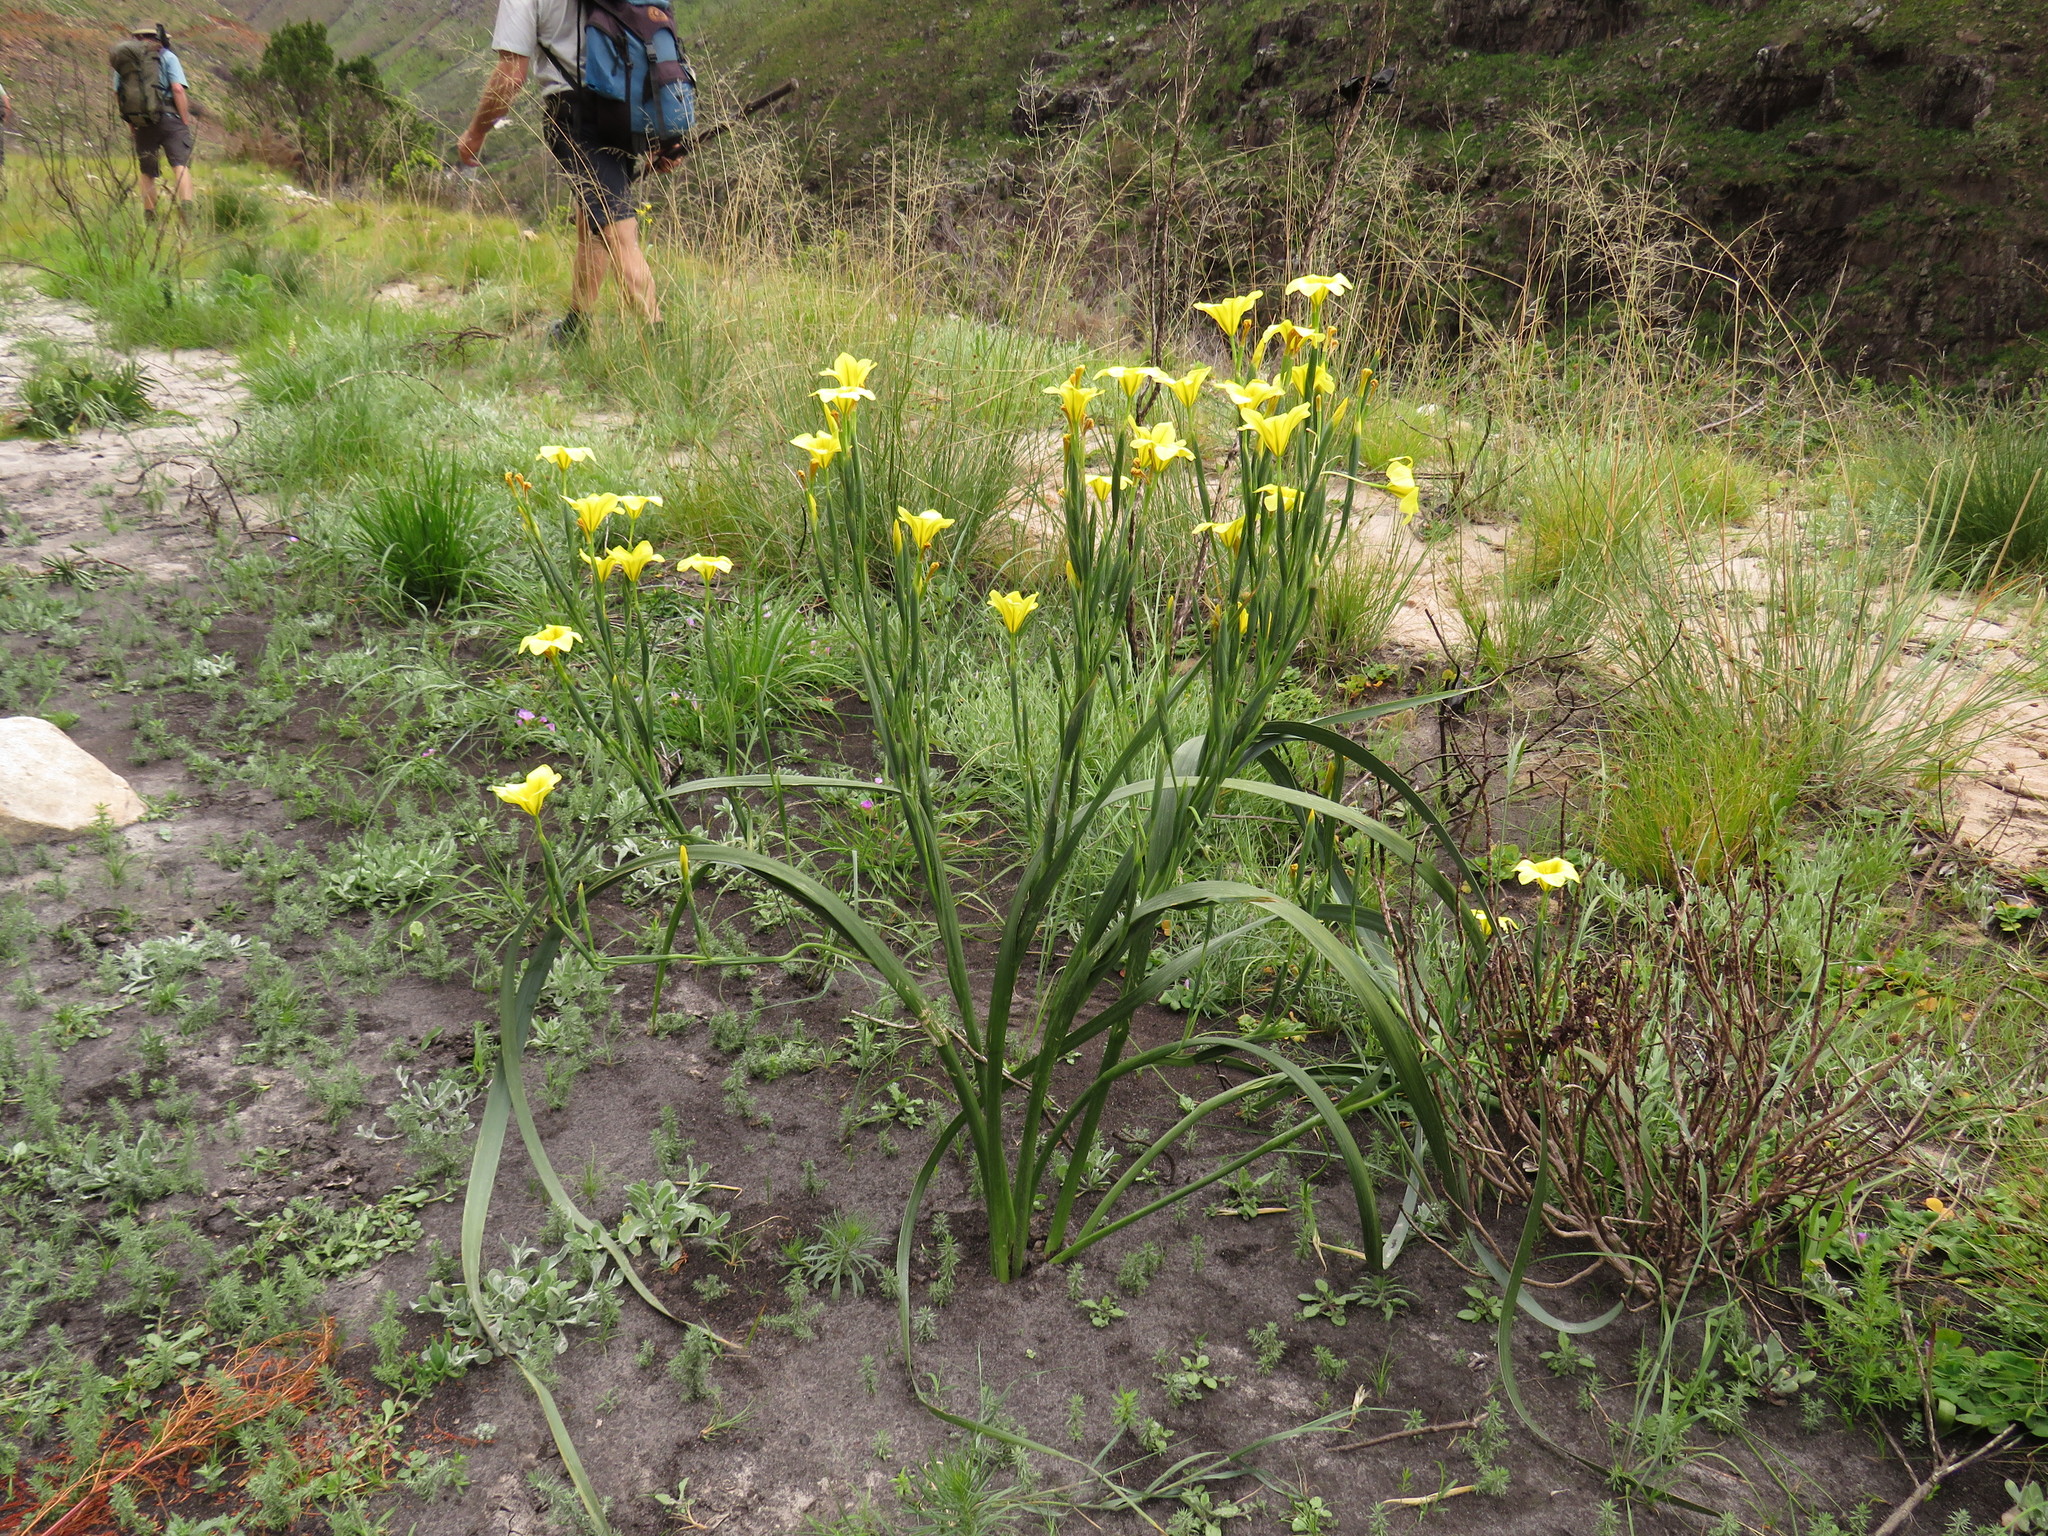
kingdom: Plantae
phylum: Tracheophyta
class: Liliopsida
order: Asparagales
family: Iridaceae
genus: Moraea
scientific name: Moraea ochroleuca
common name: Red tulp
